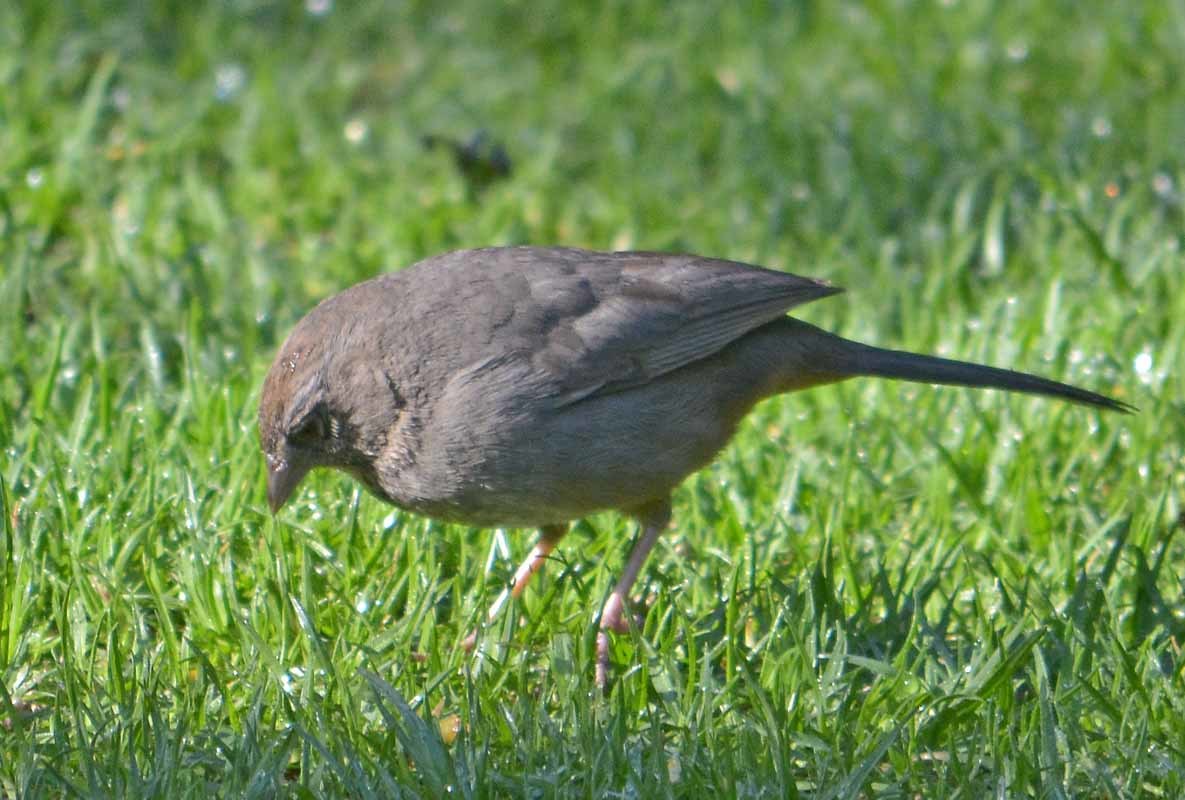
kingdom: Animalia
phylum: Chordata
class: Aves
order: Passeriformes
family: Passerellidae
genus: Melozone
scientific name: Melozone fusca
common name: Canyon towhee
